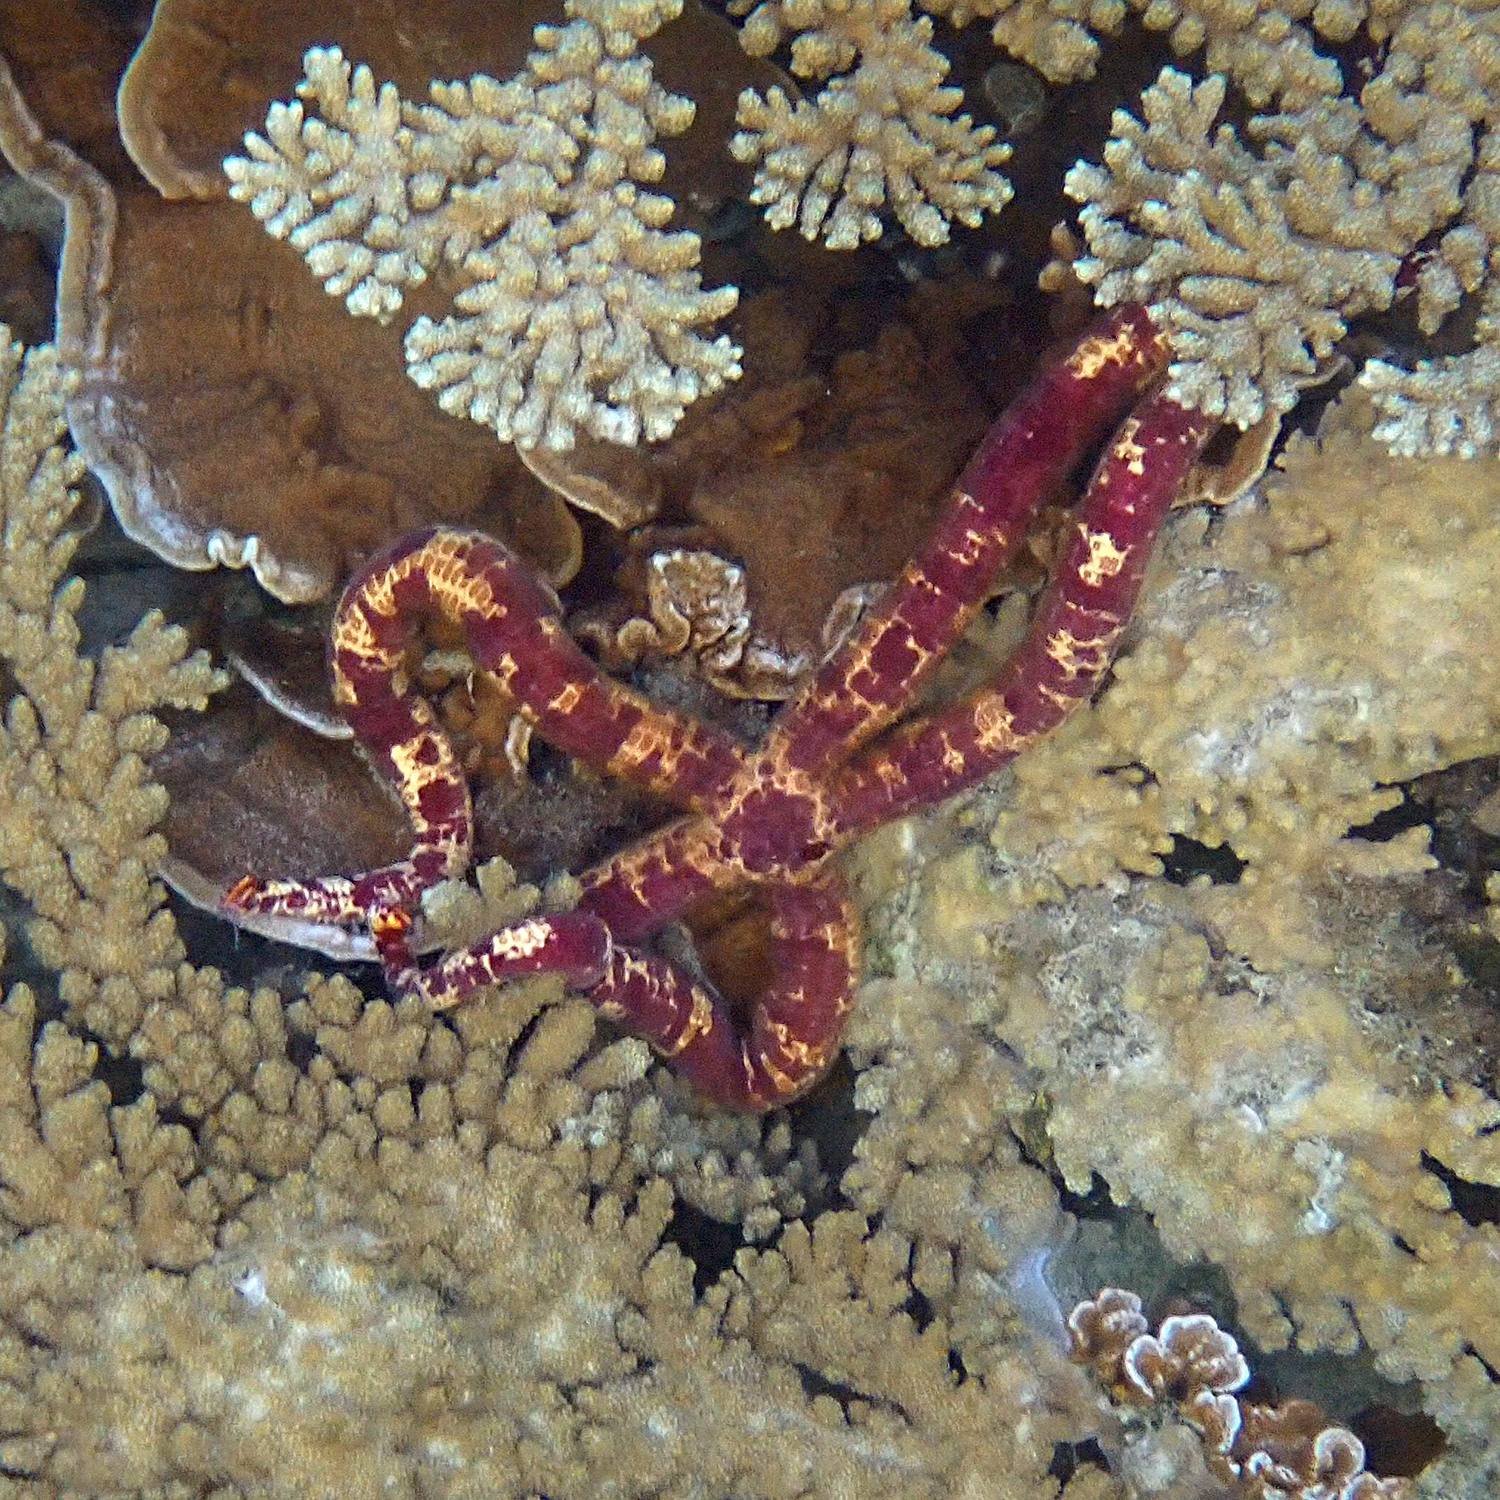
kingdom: Animalia
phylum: Echinodermata
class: Asteroidea
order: Valvatida
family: Ophidiasteridae
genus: Leiaster
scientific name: Leiaster leachi
